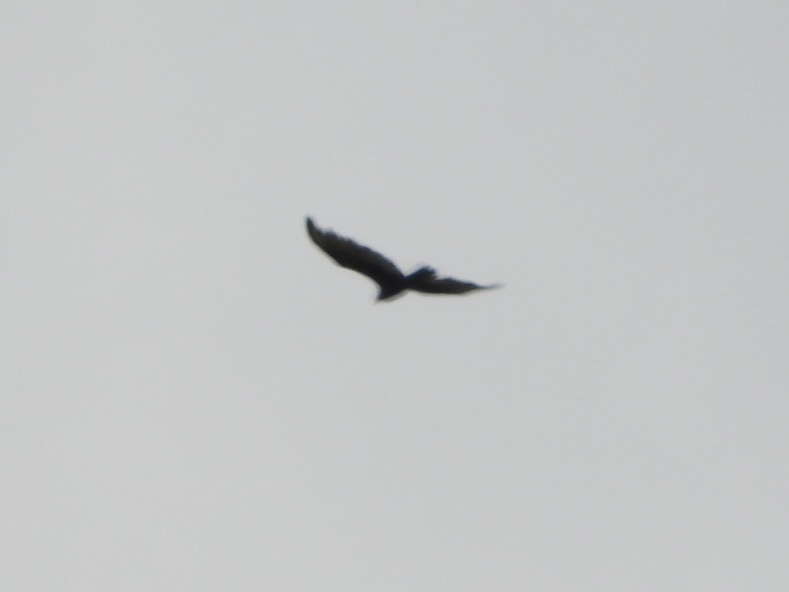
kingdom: Animalia
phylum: Chordata
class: Aves
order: Accipitriformes
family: Cathartidae
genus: Cathartes
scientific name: Cathartes aura
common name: Turkey vulture
